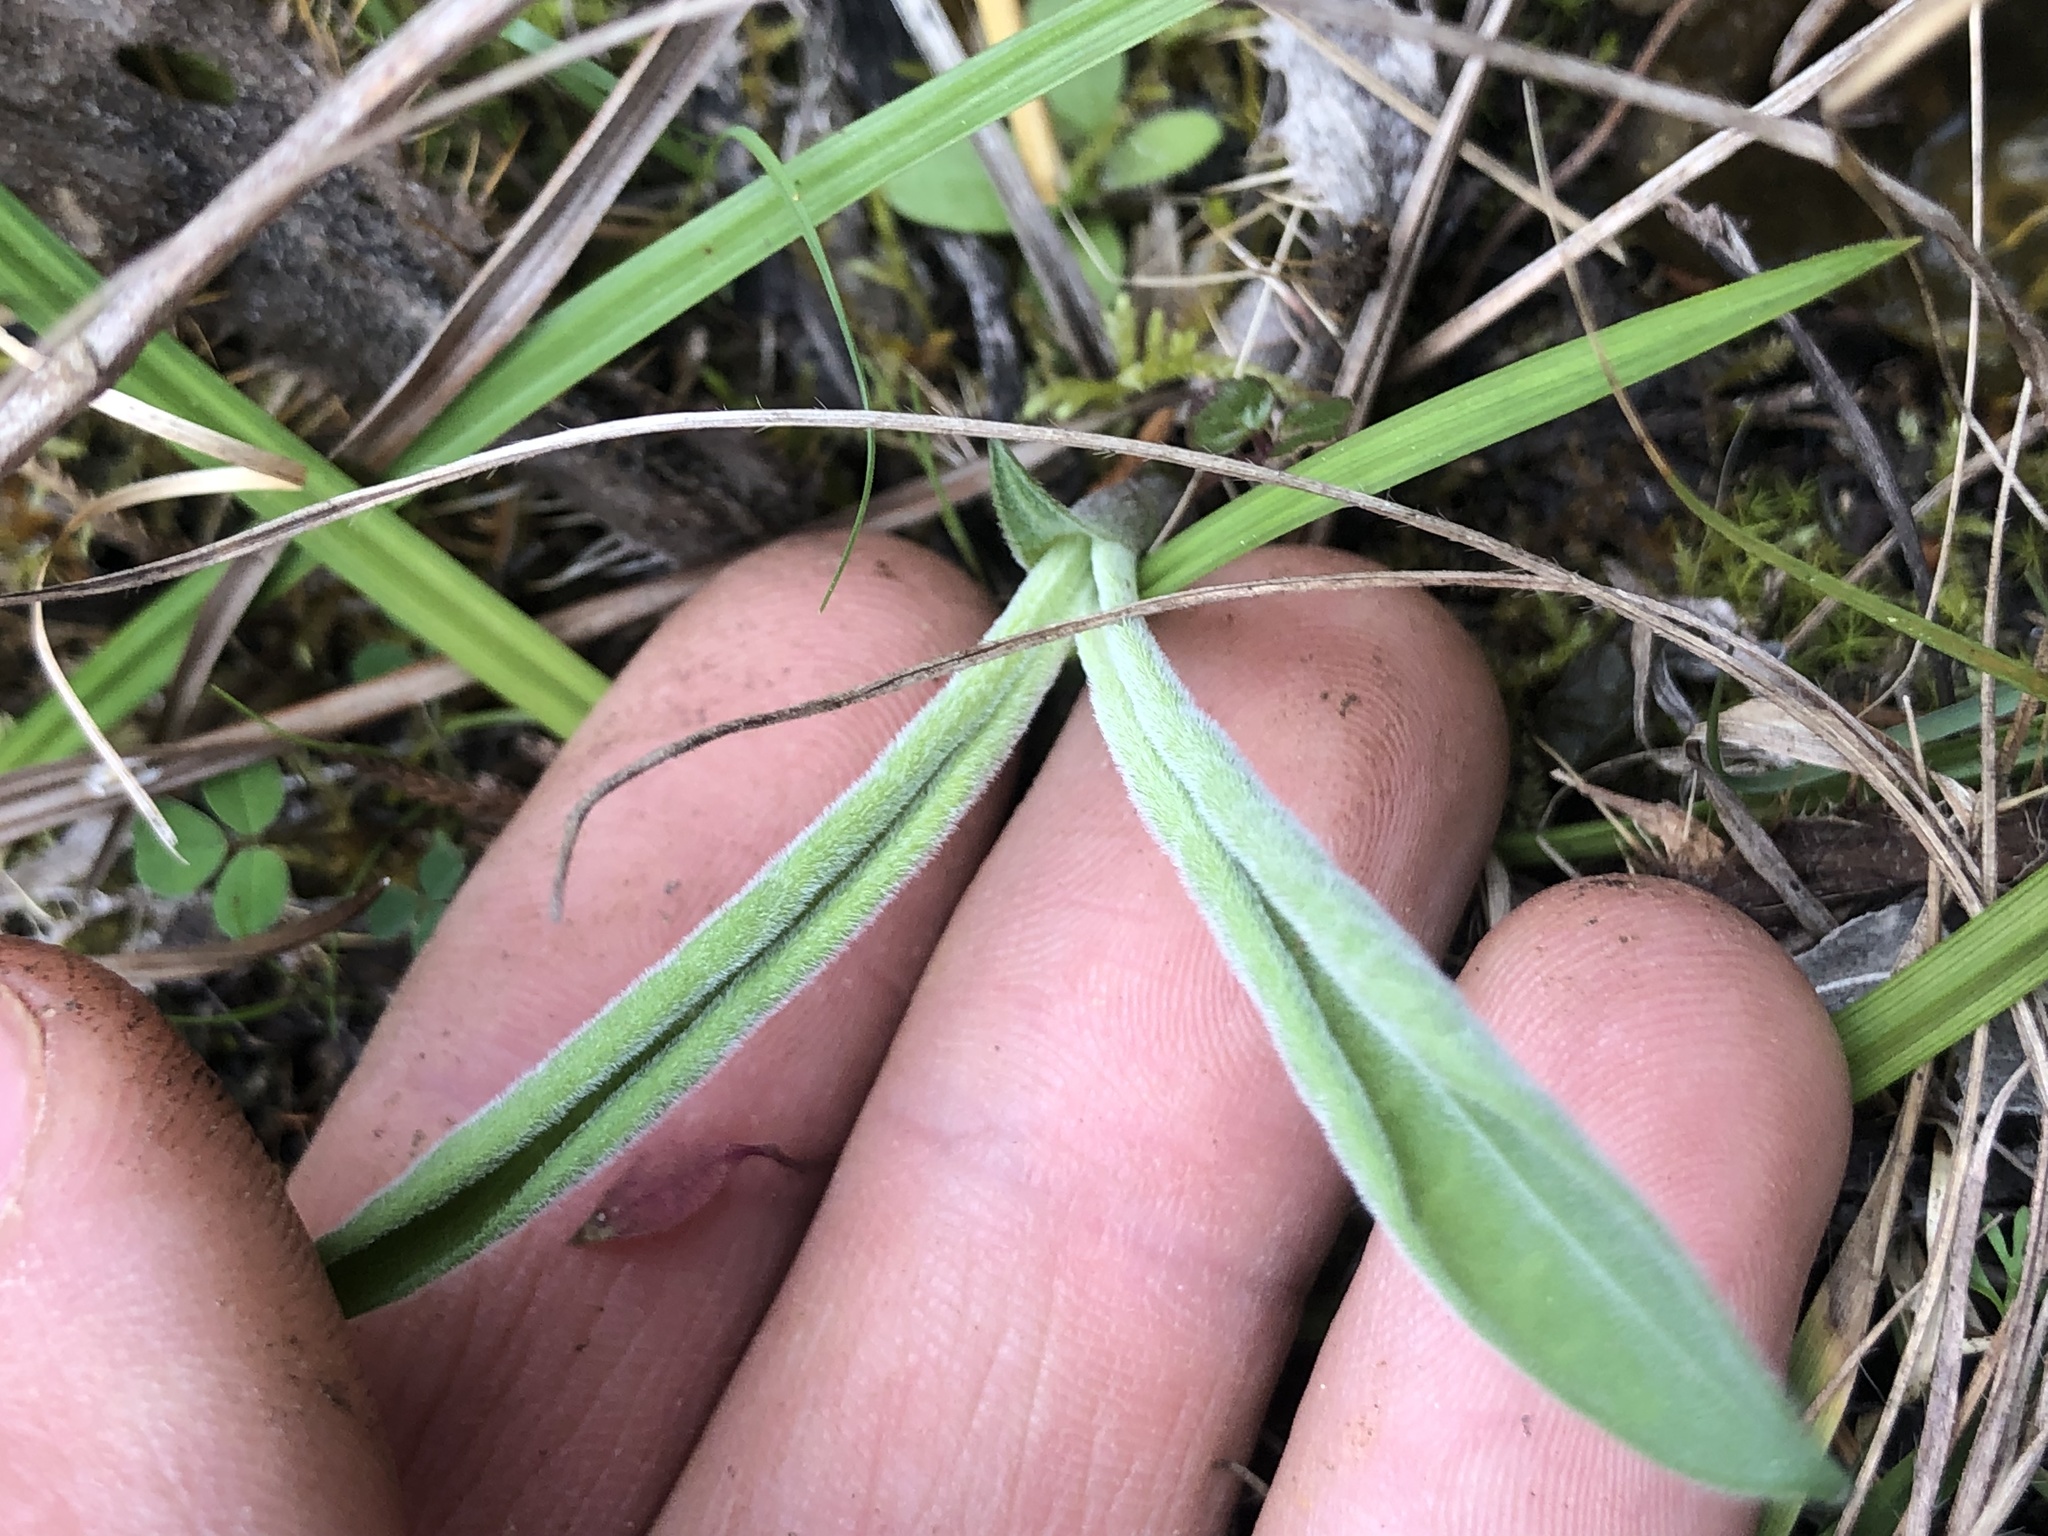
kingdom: Plantae
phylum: Tracheophyta
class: Magnoliopsida
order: Asterales
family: Asteraceae
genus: Liatris
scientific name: Liatris squarrulosa
